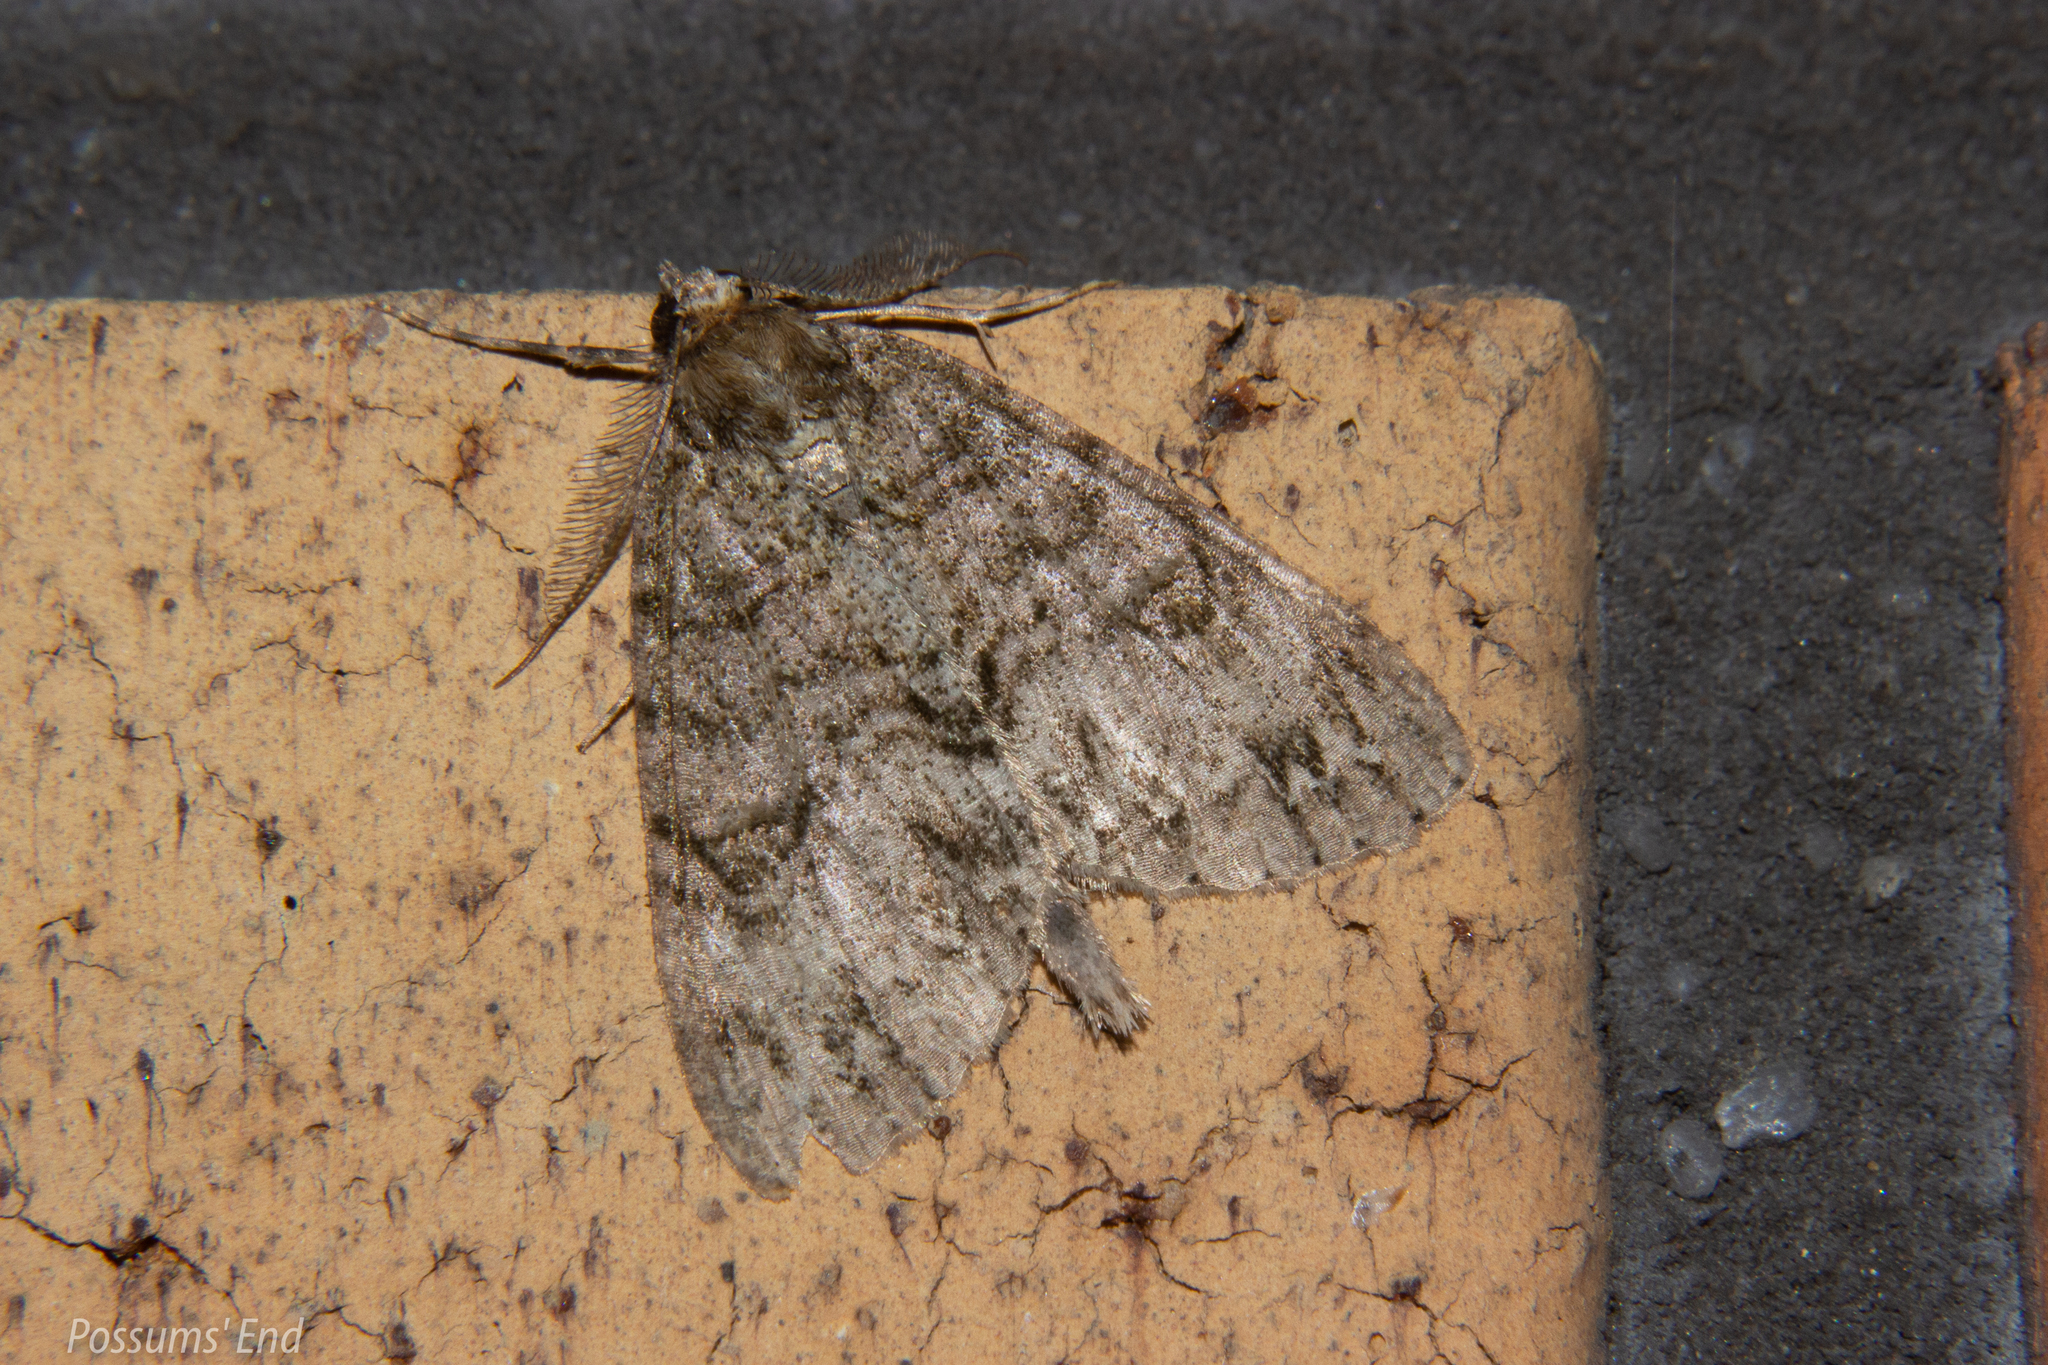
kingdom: Animalia
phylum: Arthropoda
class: Insecta
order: Lepidoptera
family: Geometridae
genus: Pseudocoremia
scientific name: Pseudocoremia suavis
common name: Common forest looper
